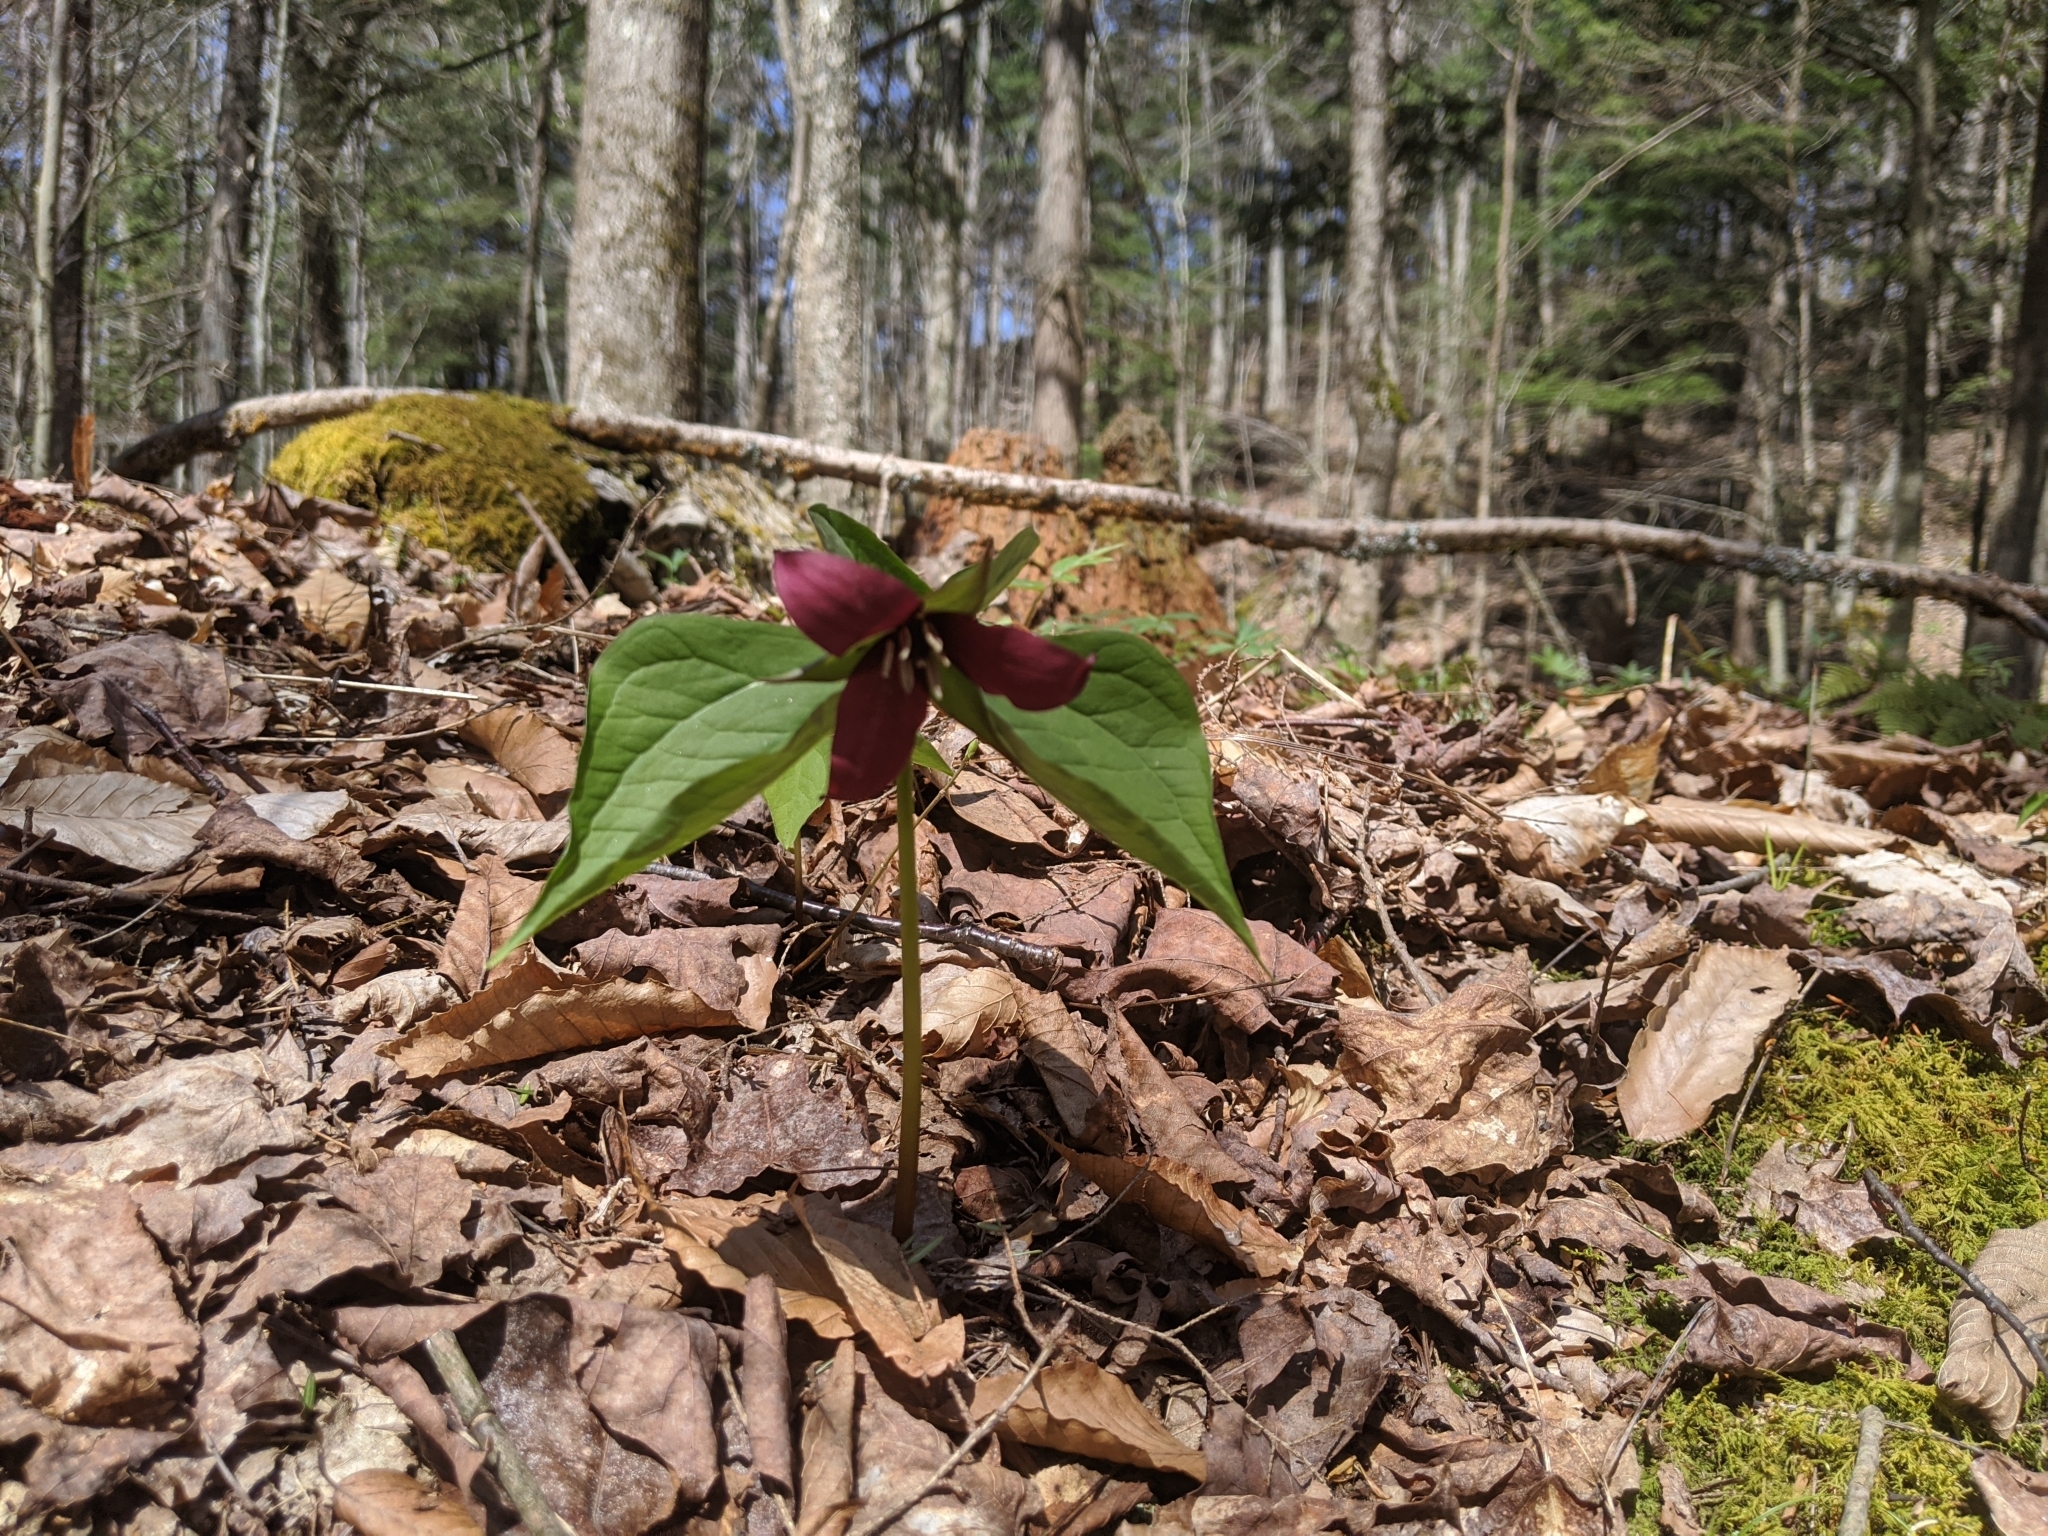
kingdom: Plantae
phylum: Tracheophyta
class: Liliopsida
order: Liliales
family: Melanthiaceae
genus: Trillium
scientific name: Trillium erectum
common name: Purple trillium
